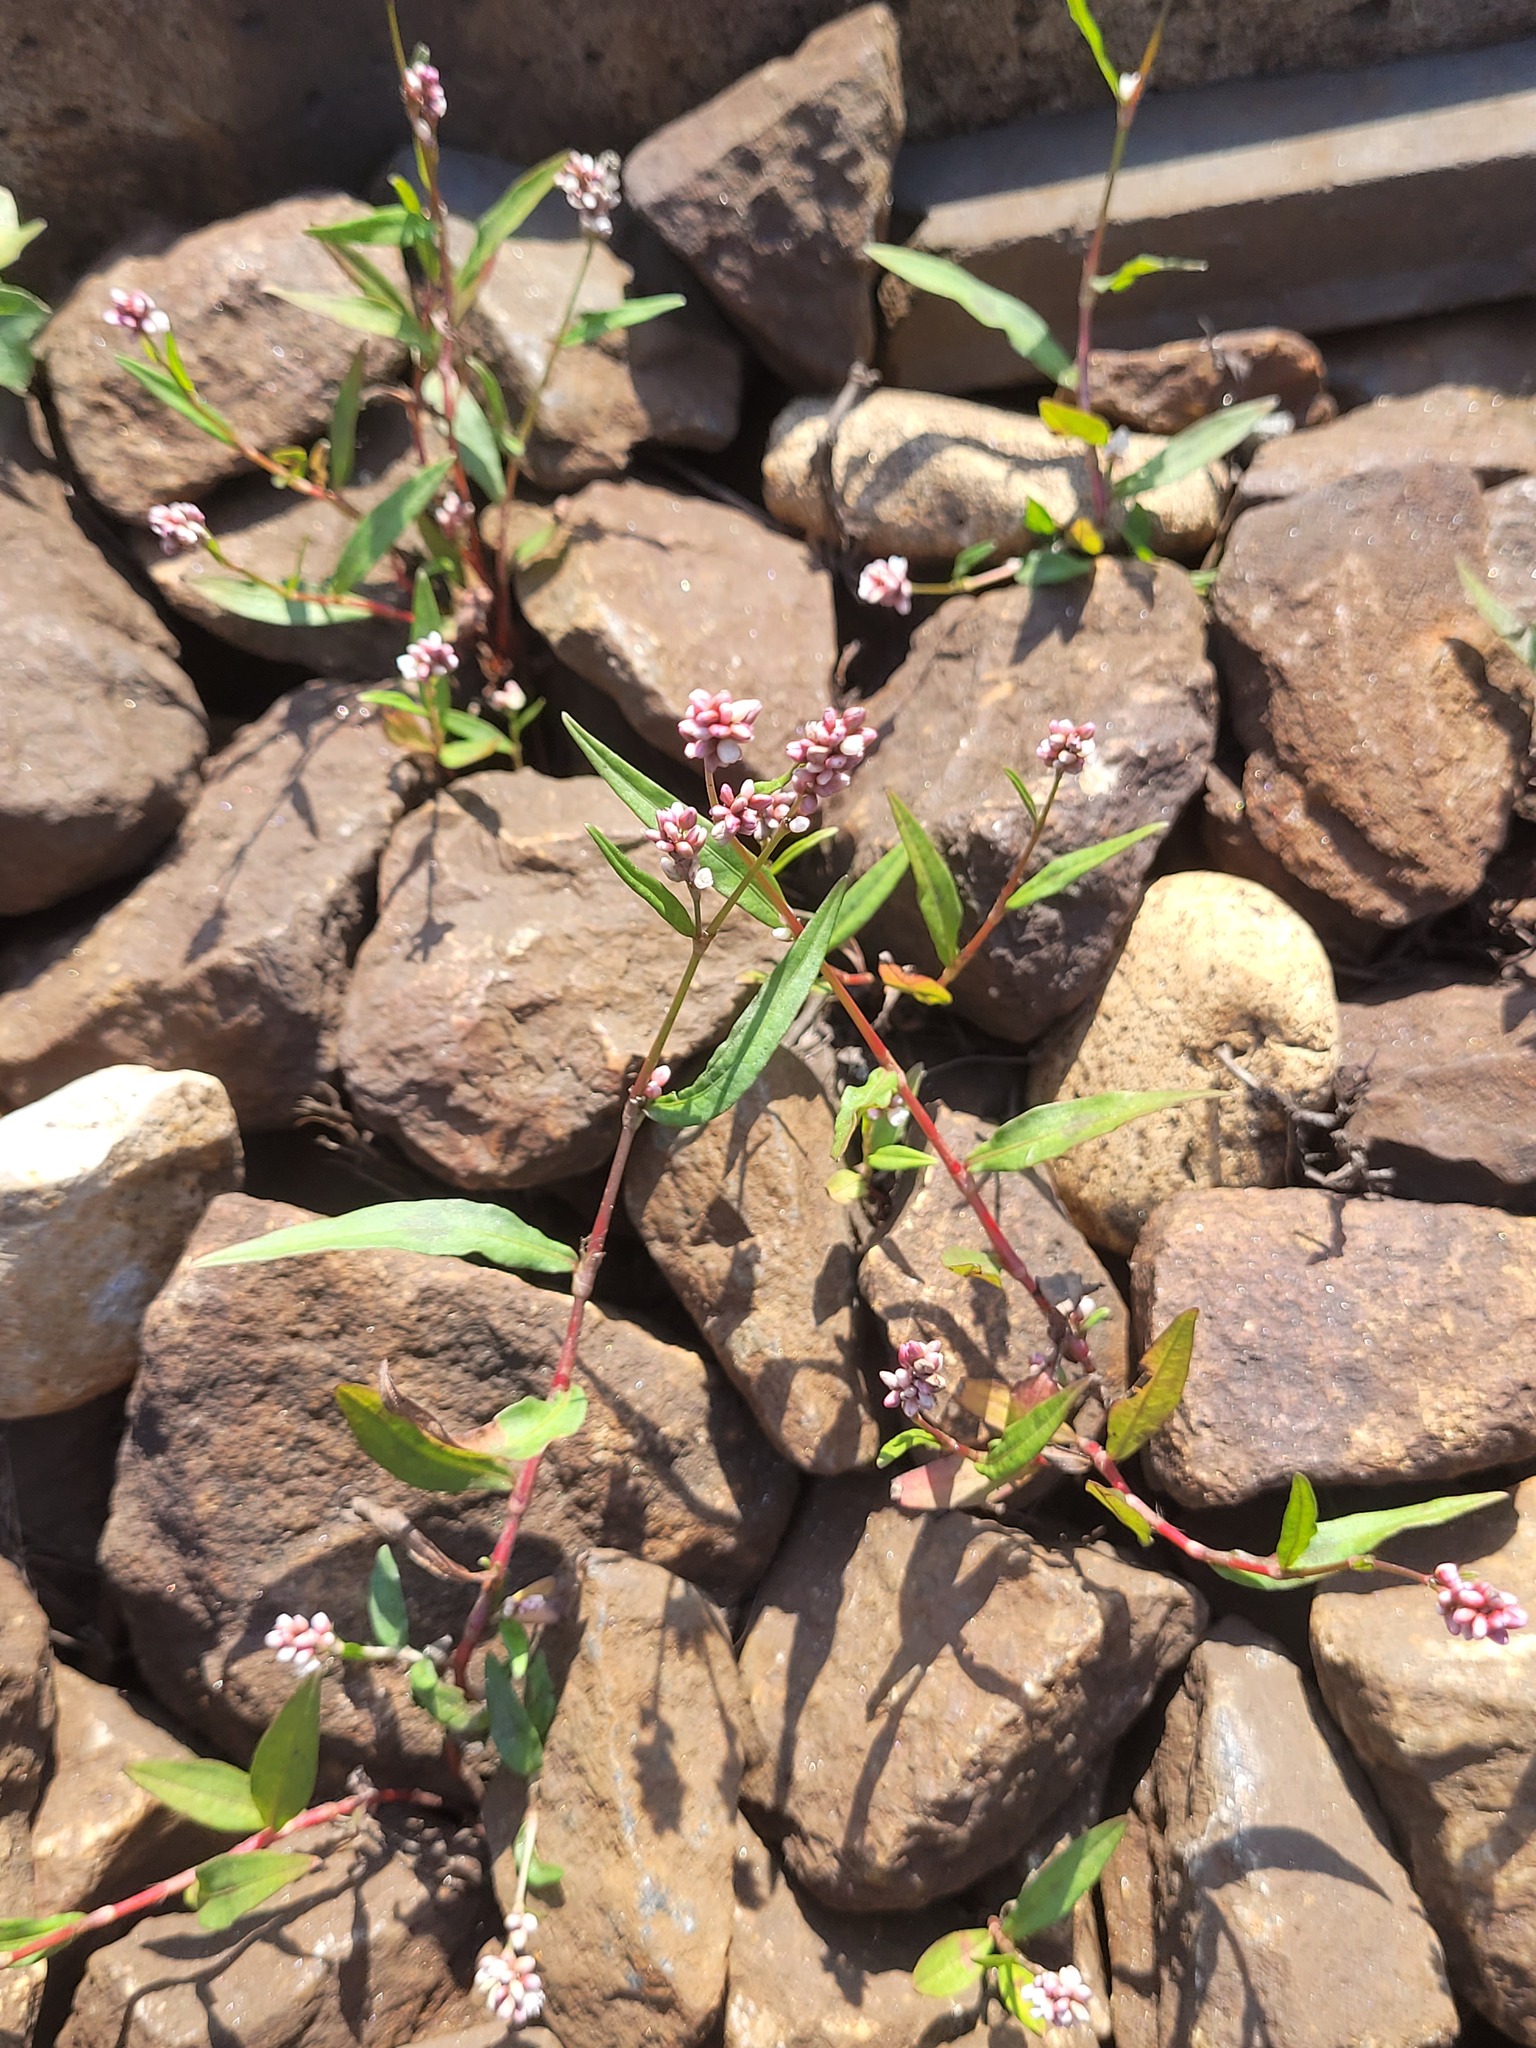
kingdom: Plantae
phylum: Tracheophyta
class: Magnoliopsida
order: Caryophyllales
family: Polygonaceae
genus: Persicaria
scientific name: Persicaria maculosa
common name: Redshank
